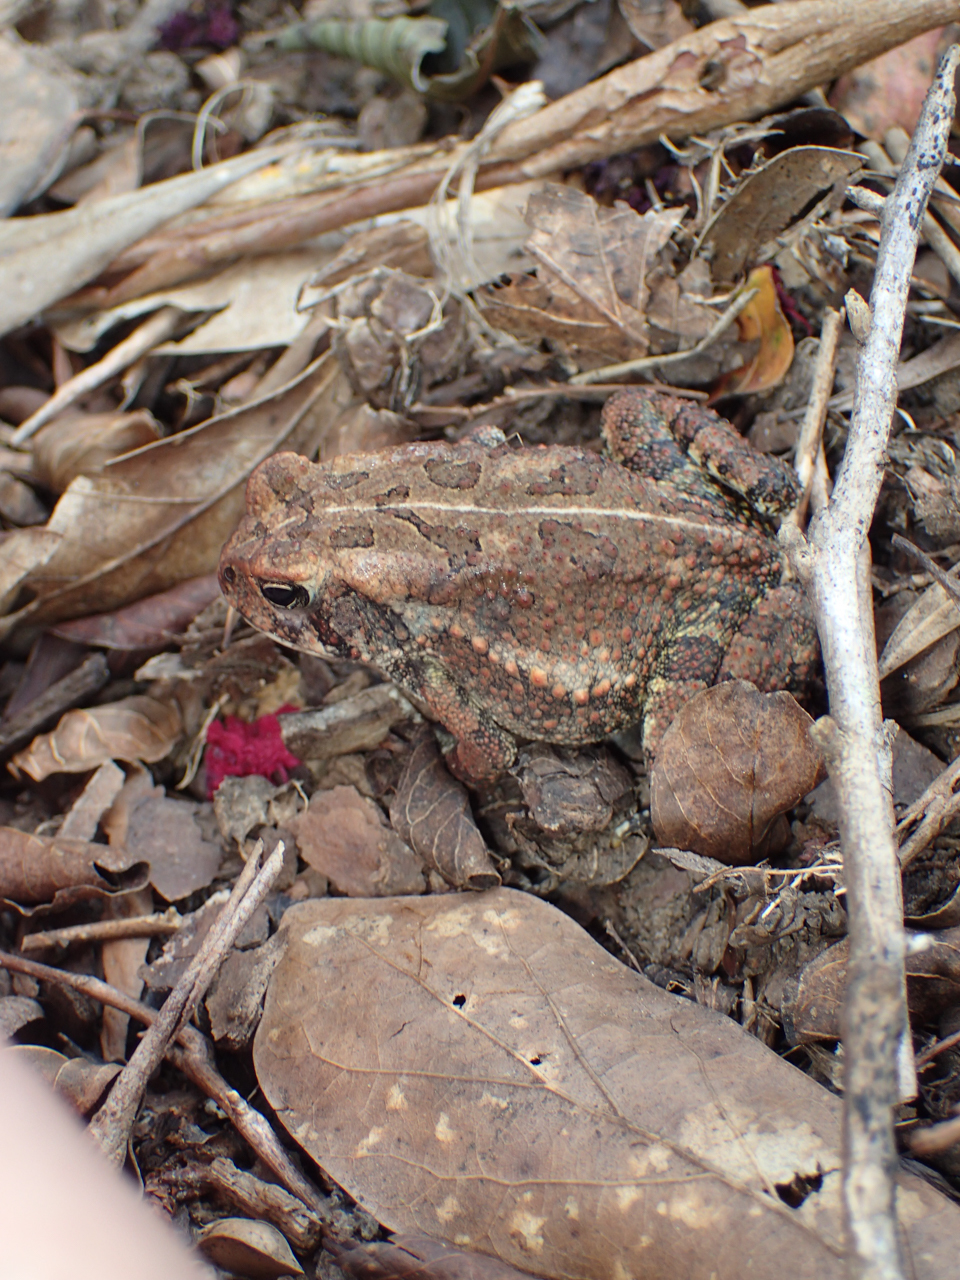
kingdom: Animalia
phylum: Chordata
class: Amphibia
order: Anura
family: Bufonidae
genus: Anaxyrus
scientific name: Anaxyrus fowleri
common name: Fowler's toad
